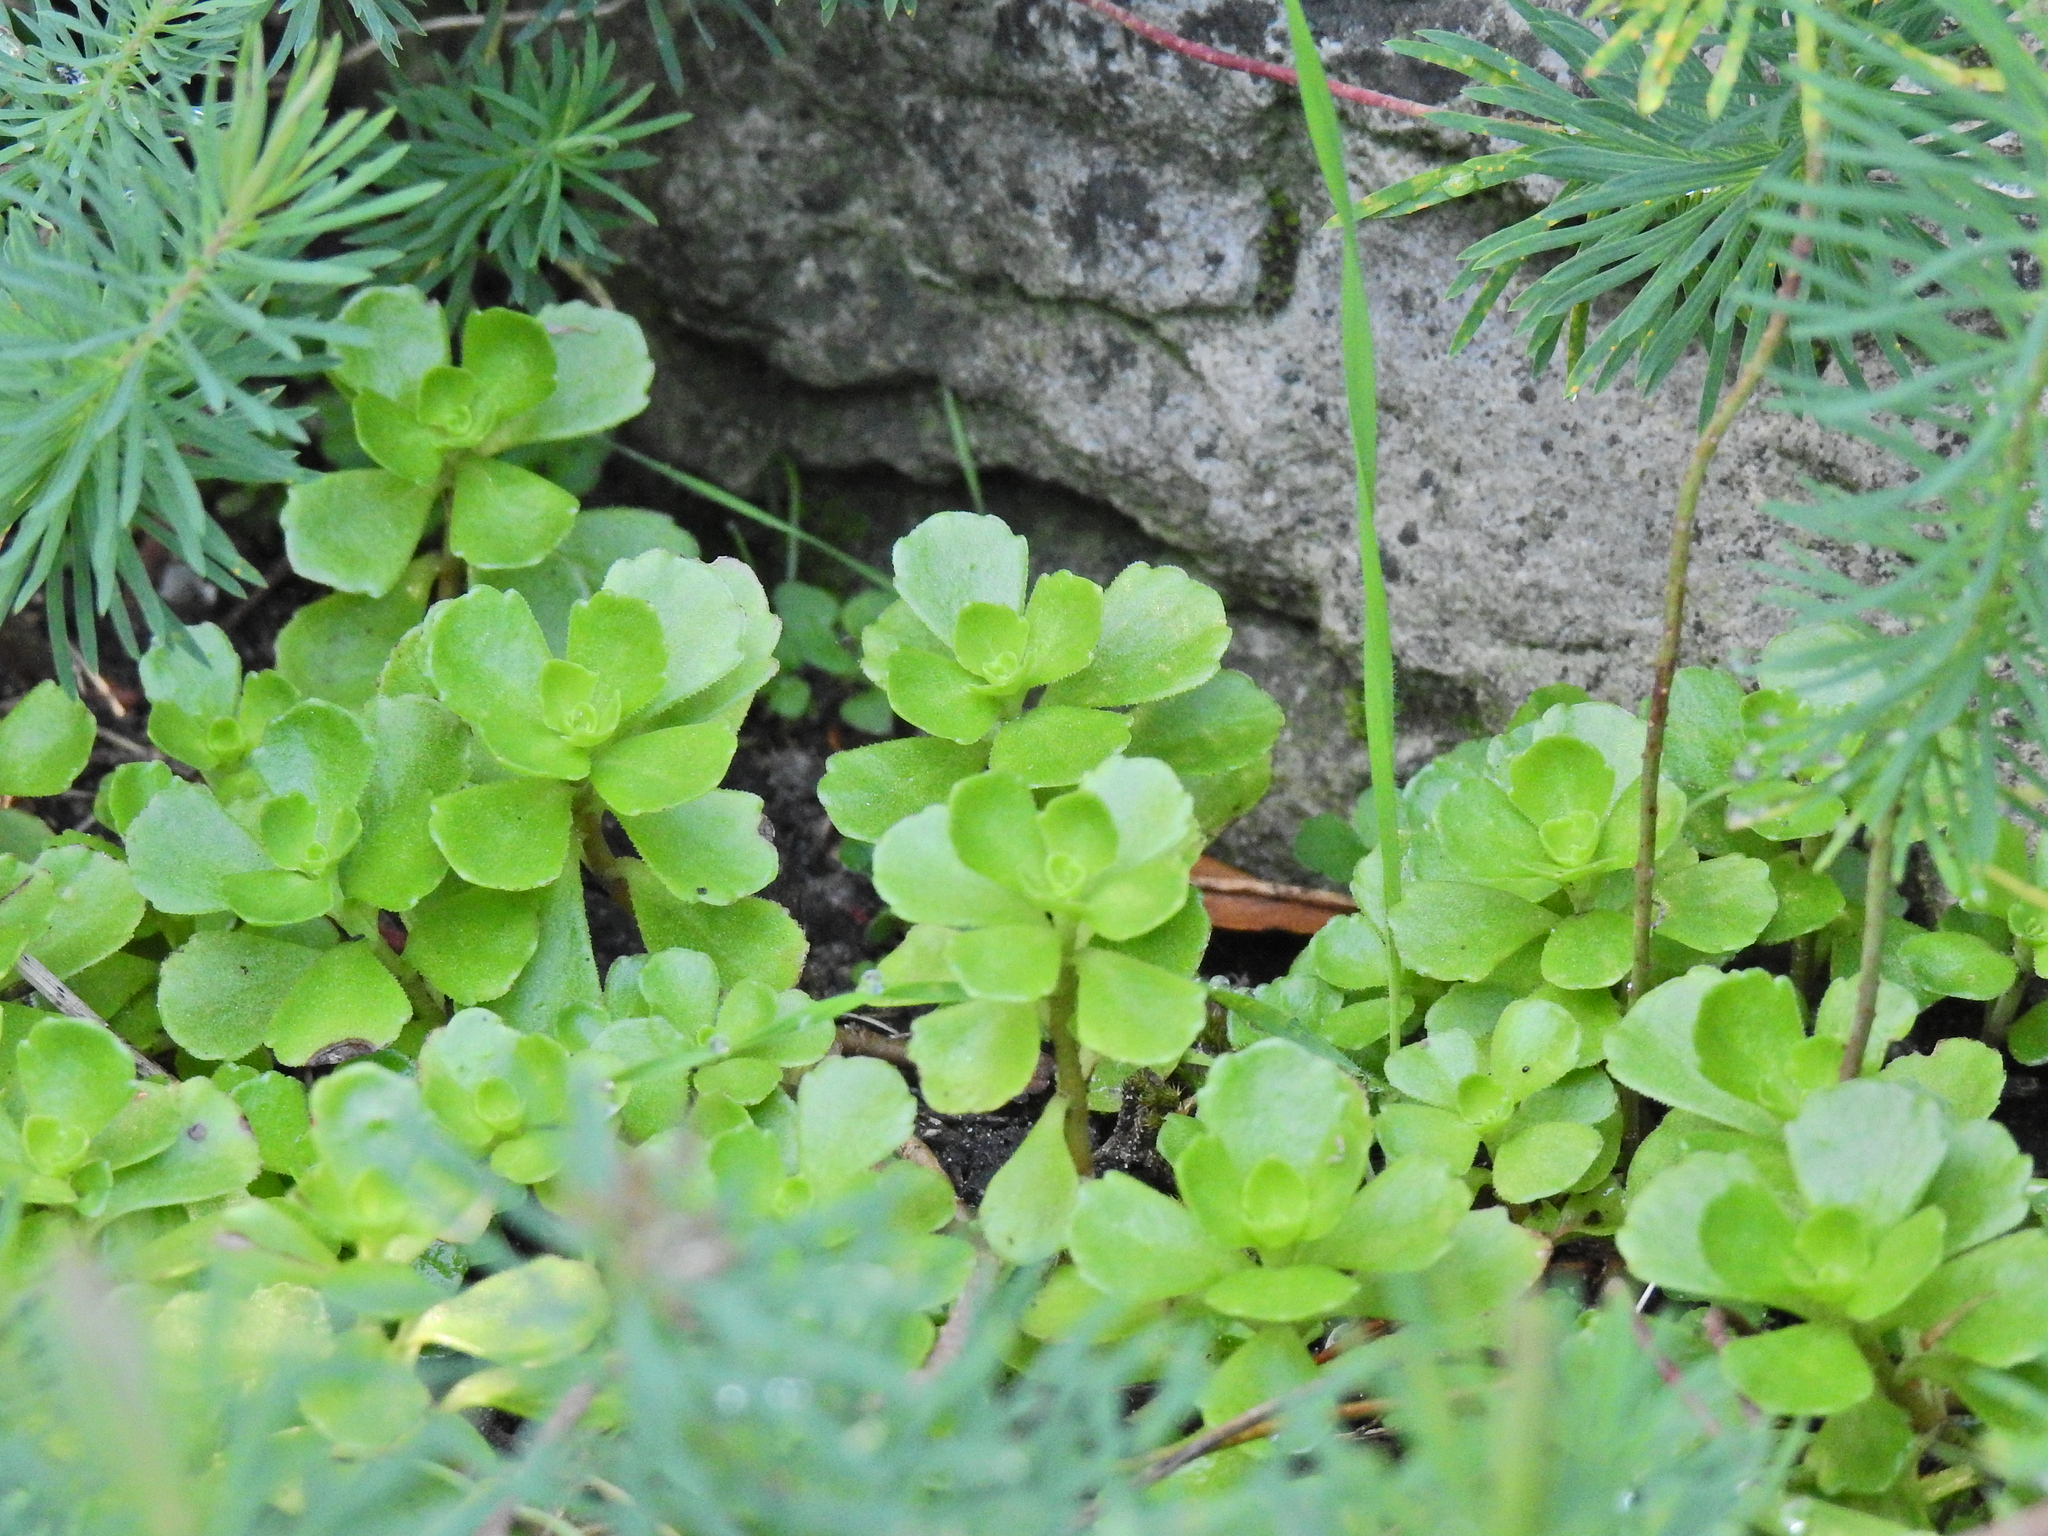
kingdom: Plantae
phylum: Tracheophyta
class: Magnoliopsida
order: Saxifragales
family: Crassulaceae
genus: Phedimus
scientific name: Phedimus spurius
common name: Caucasian stonecrop
